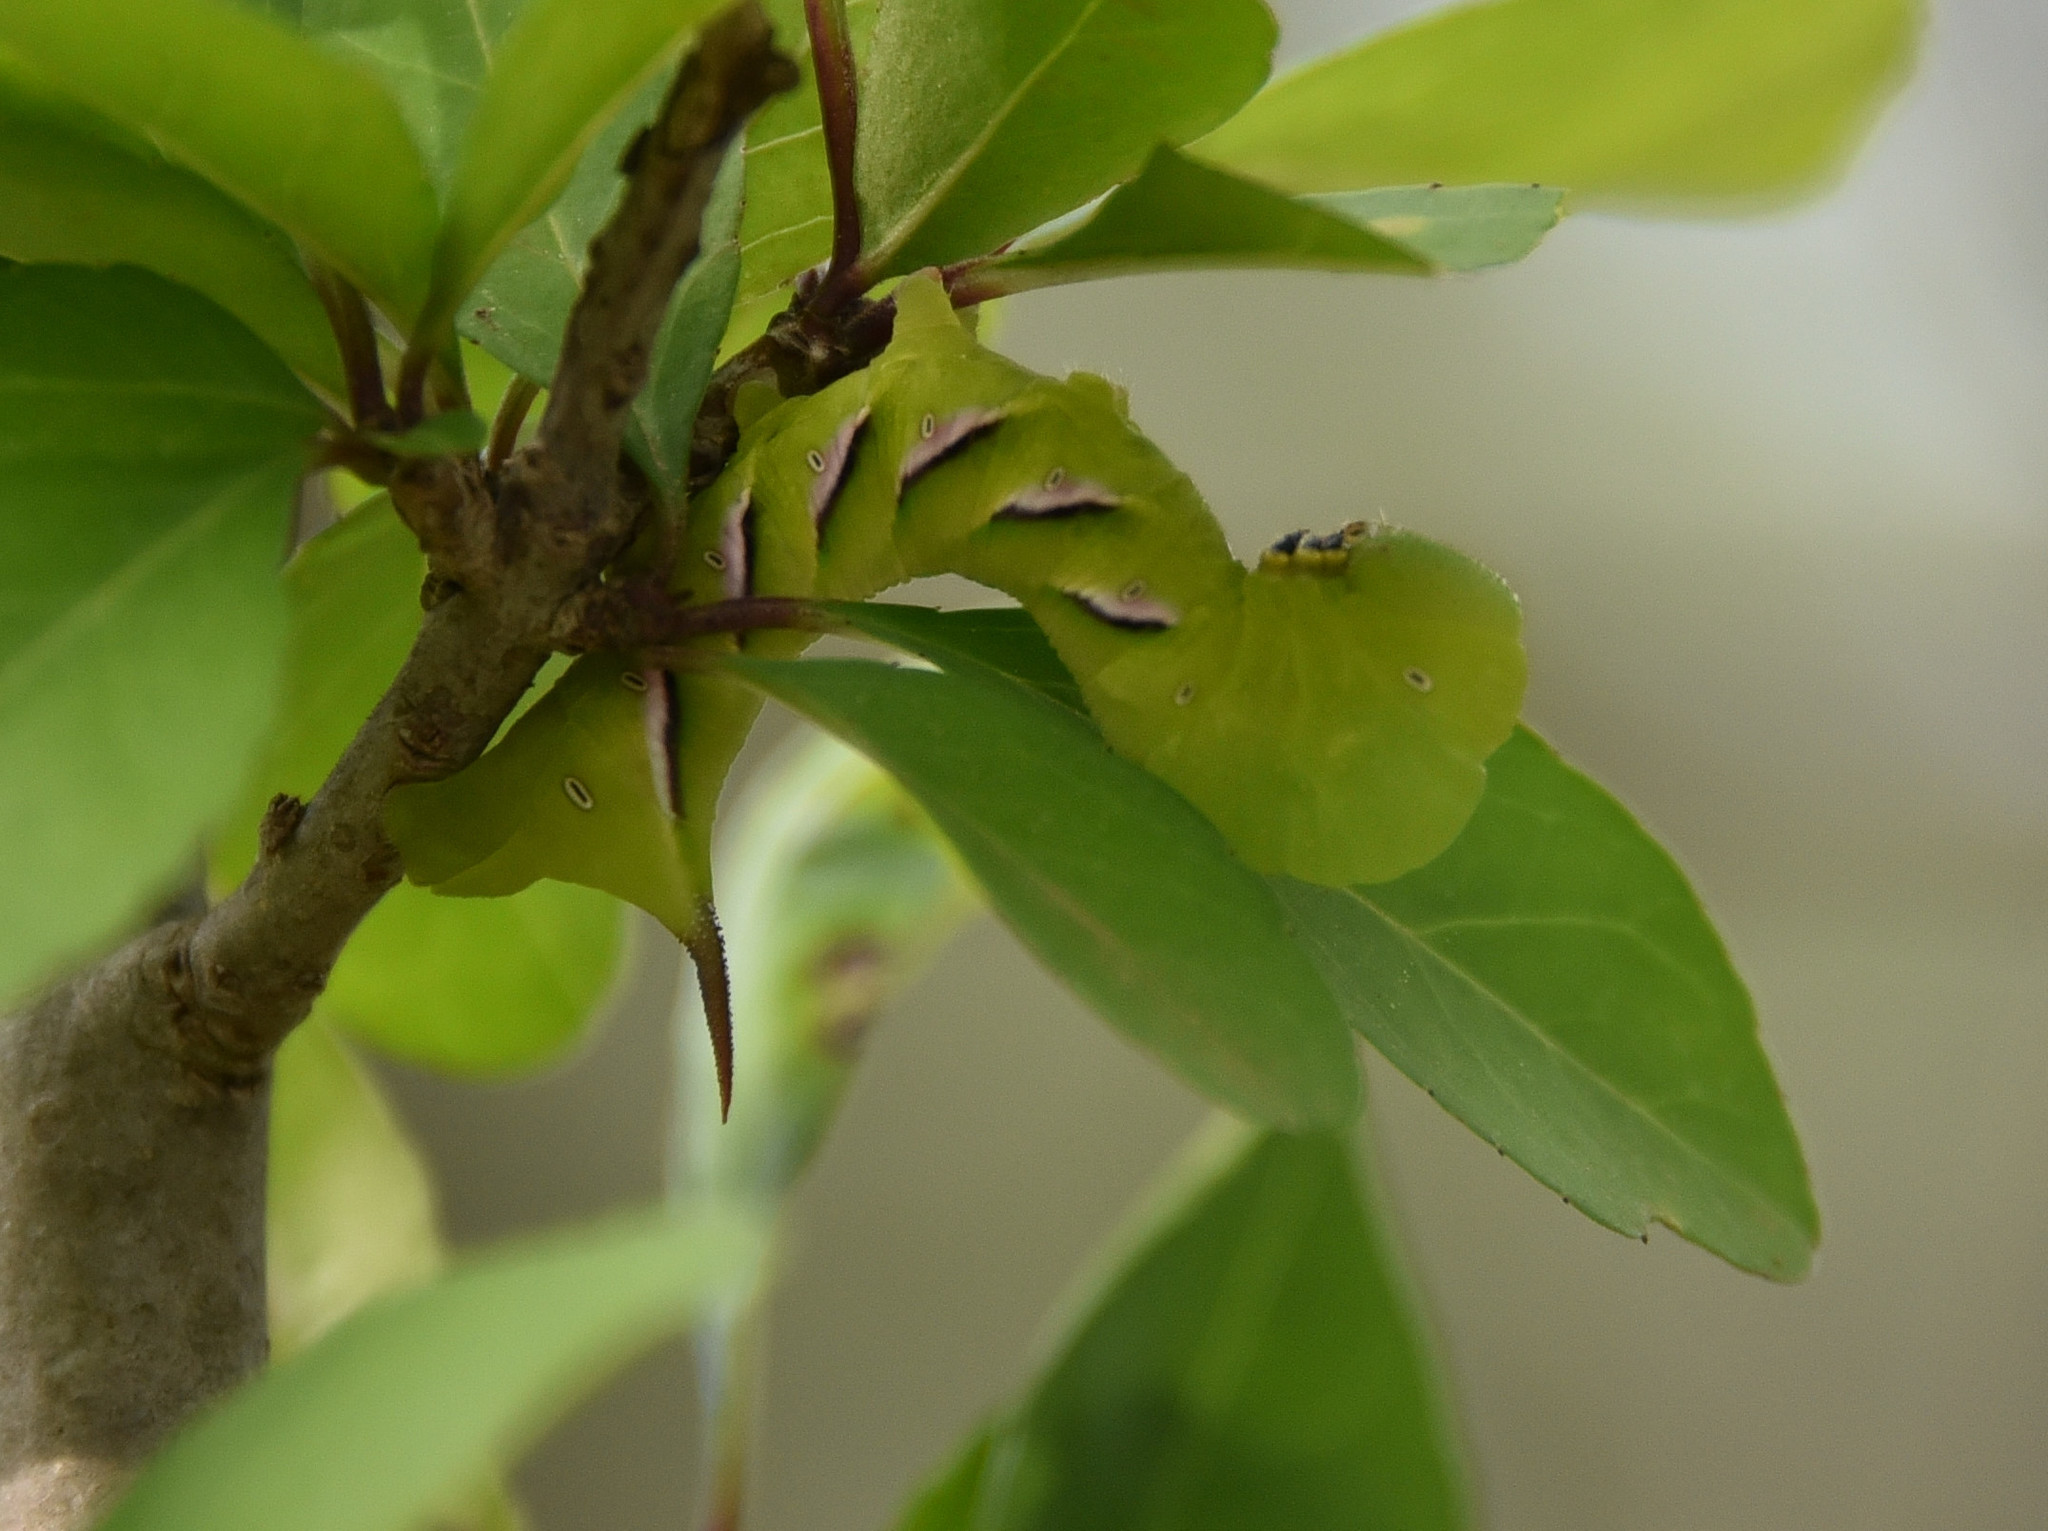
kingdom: Animalia
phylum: Arthropoda
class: Insecta
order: Lepidoptera
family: Sphingidae
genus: Dolba
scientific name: Dolba hyloeus
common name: Pawpaw sphinx
